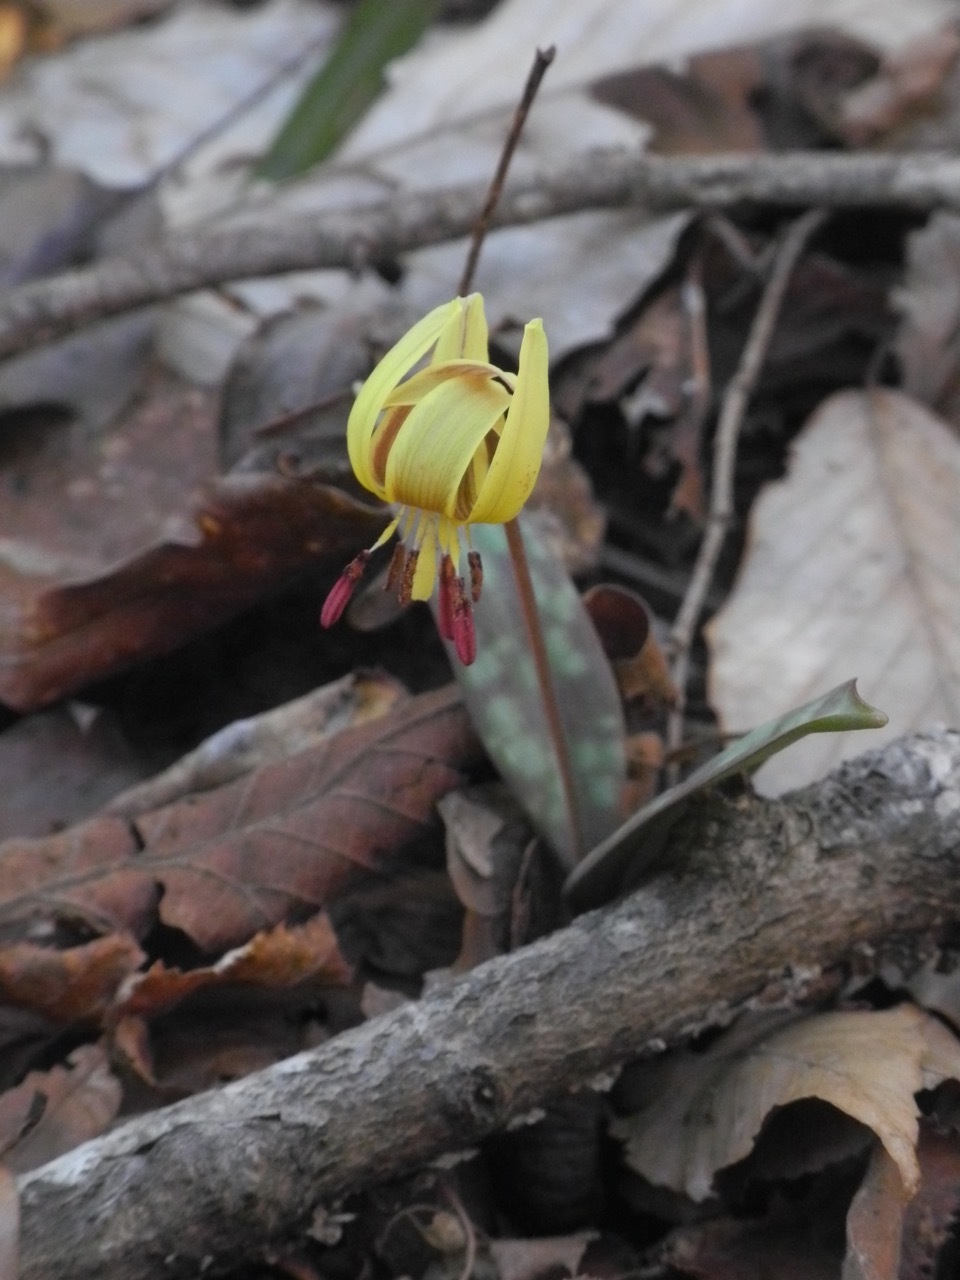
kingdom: Plantae
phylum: Tracheophyta
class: Liliopsida
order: Liliales
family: Liliaceae
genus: Erythronium
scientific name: Erythronium umbilicatum
